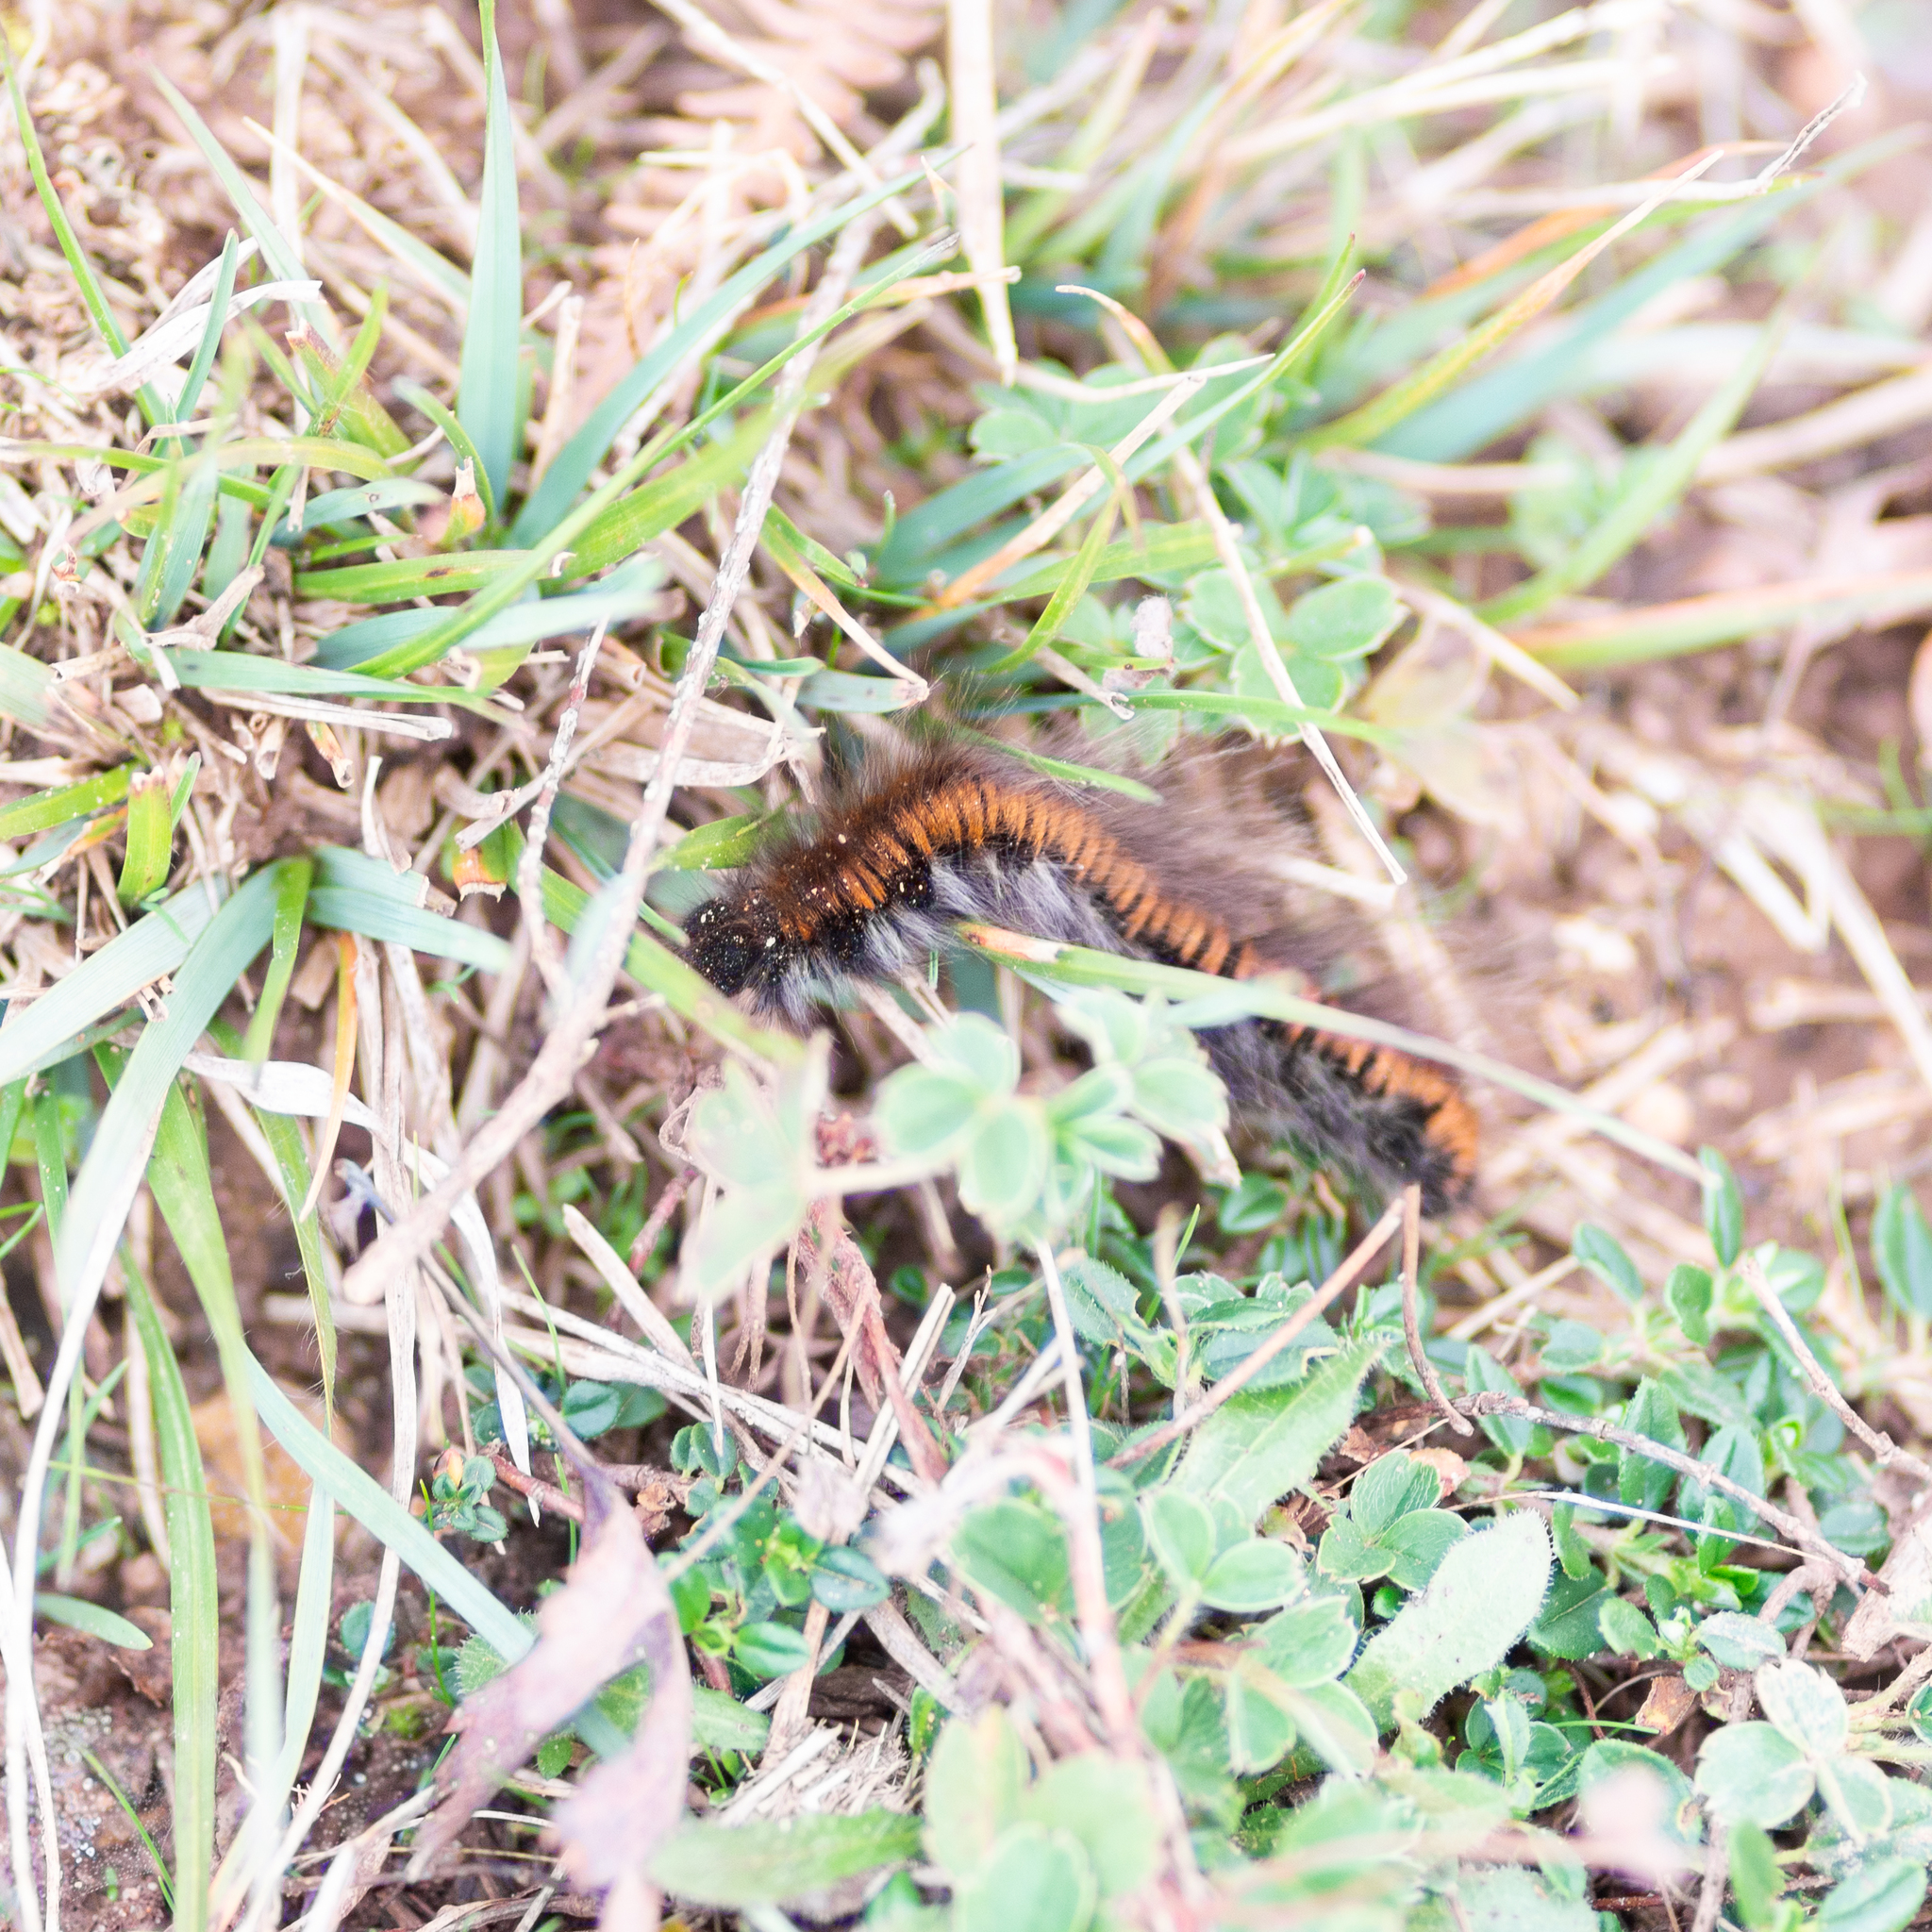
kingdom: Animalia
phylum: Arthropoda
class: Insecta
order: Lepidoptera
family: Lasiocampidae
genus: Macrothylacia
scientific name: Macrothylacia rubi
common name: Fox moth
